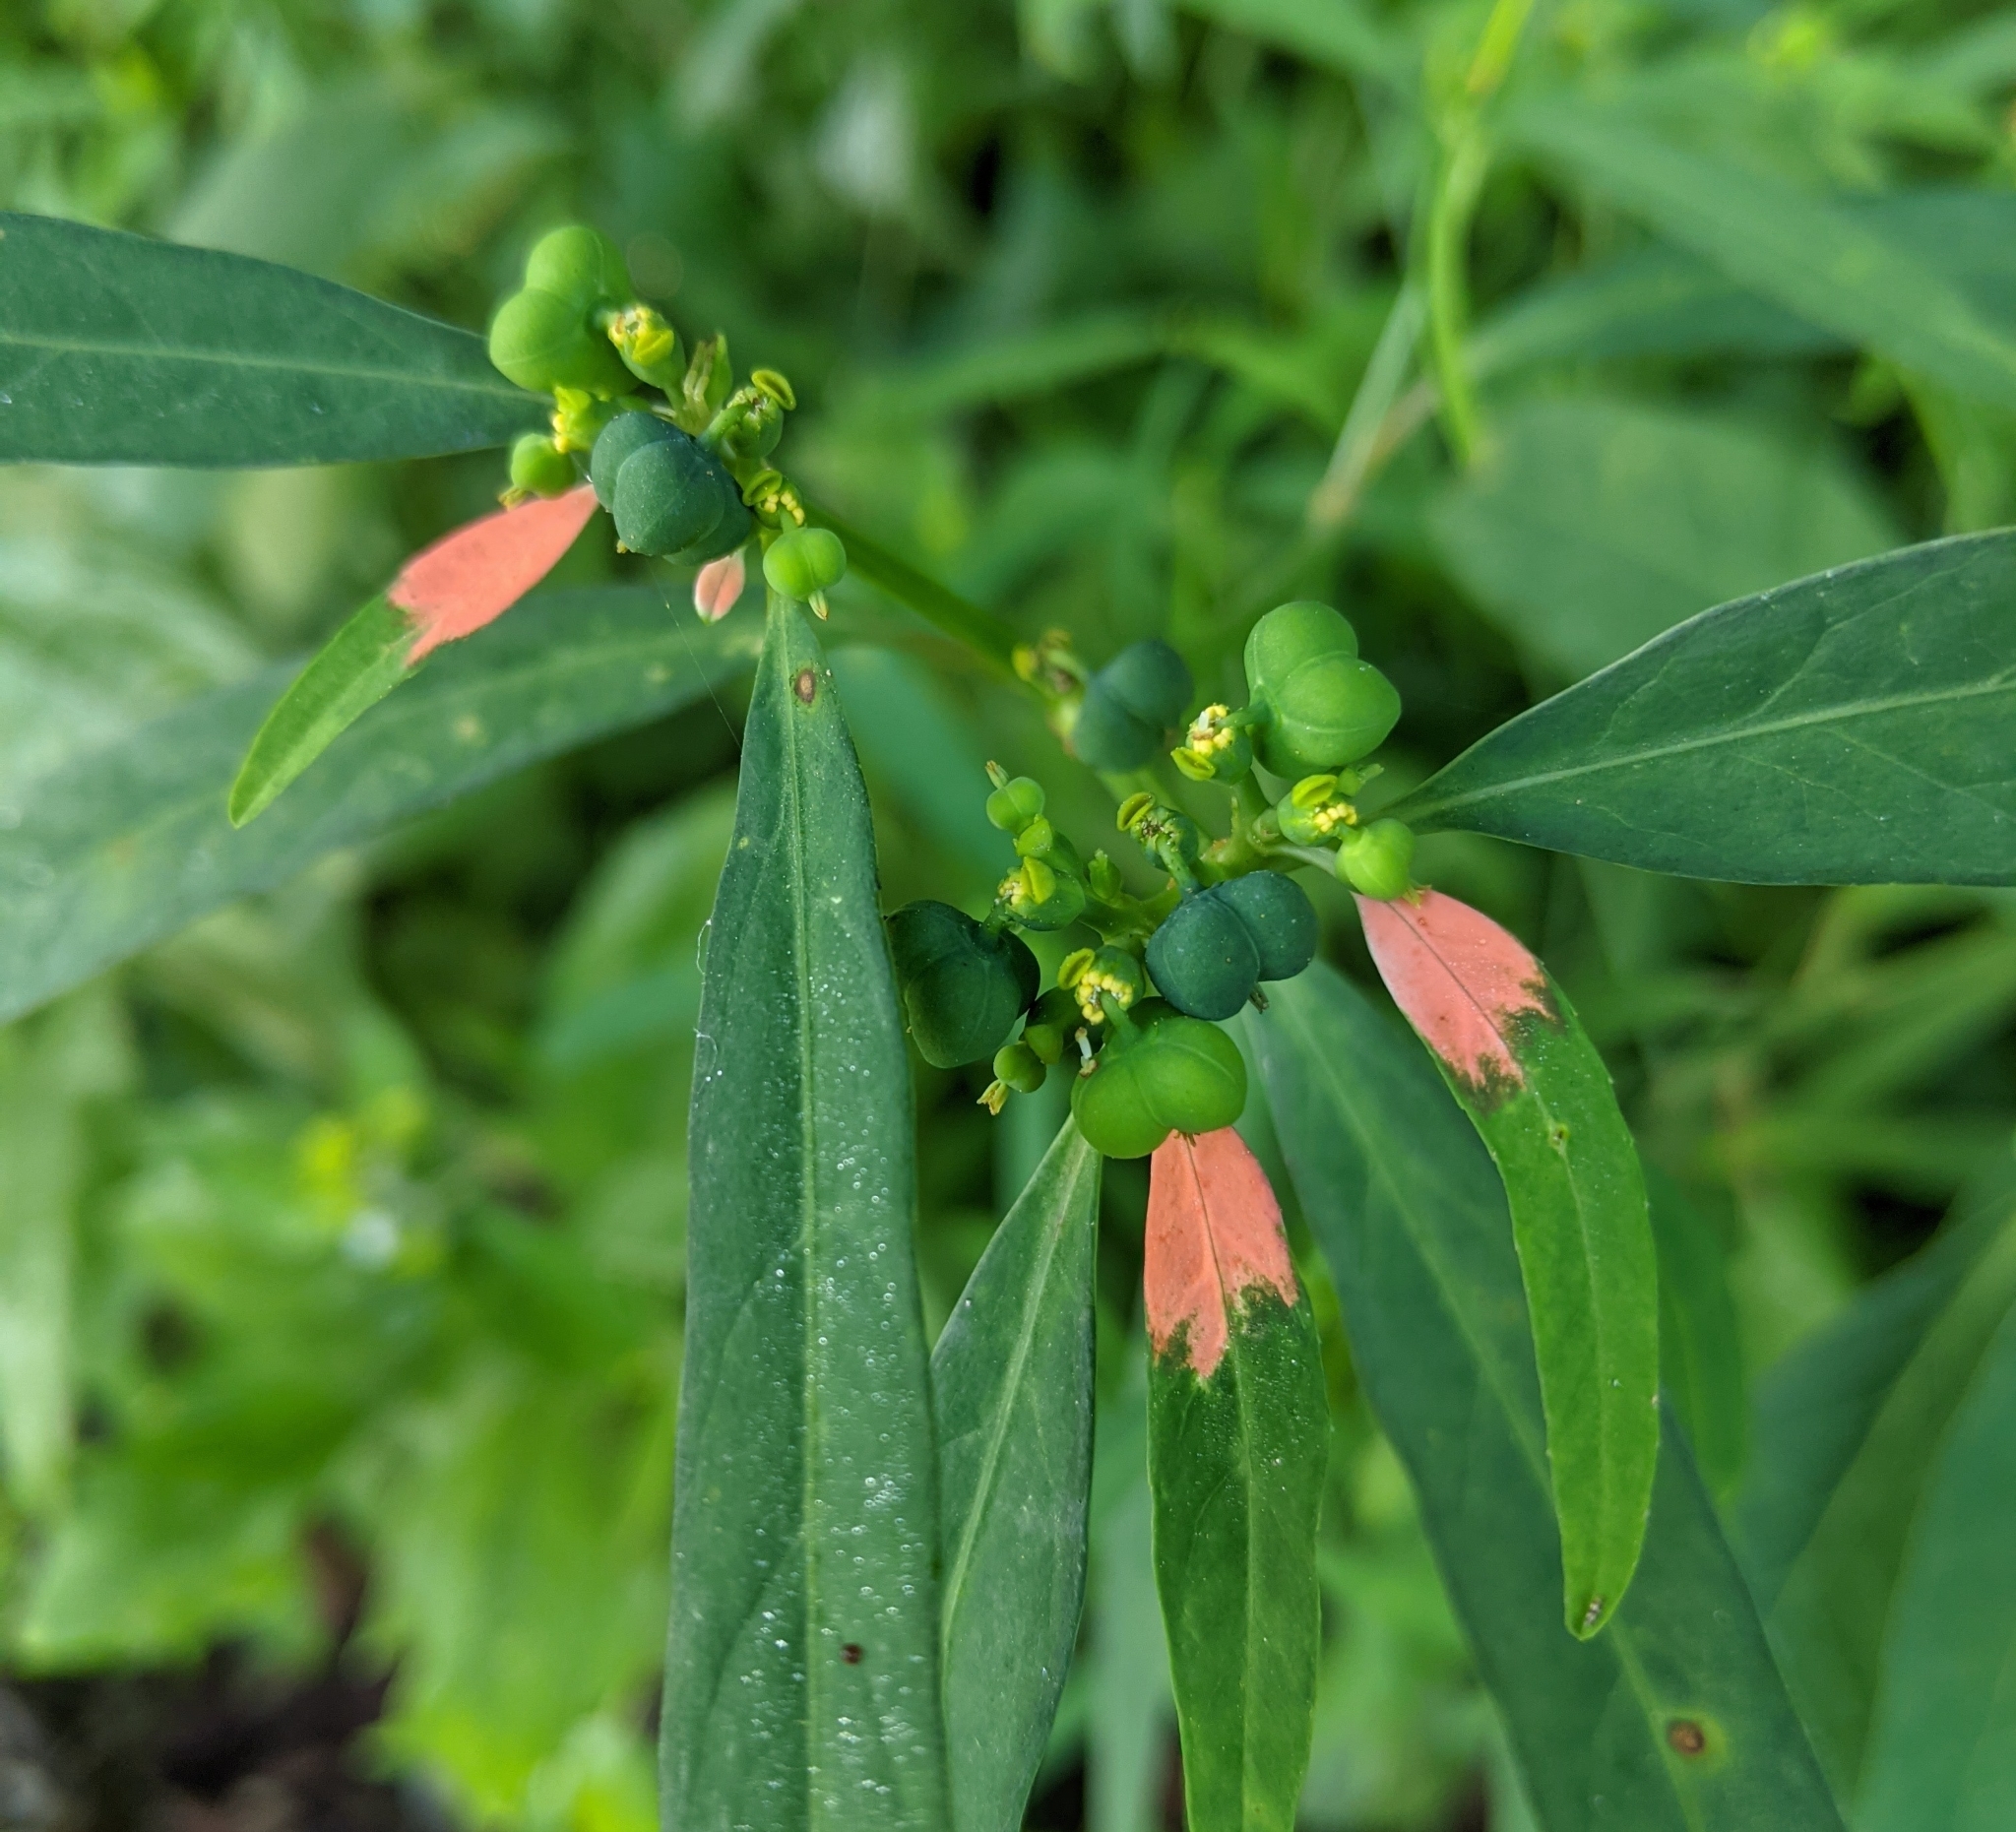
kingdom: Plantae
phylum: Tracheophyta
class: Magnoliopsida
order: Malpighiales
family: Euphorbiaceae
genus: Euphorbia
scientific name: Euphorbia heterophylla
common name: Mexican fireplant
